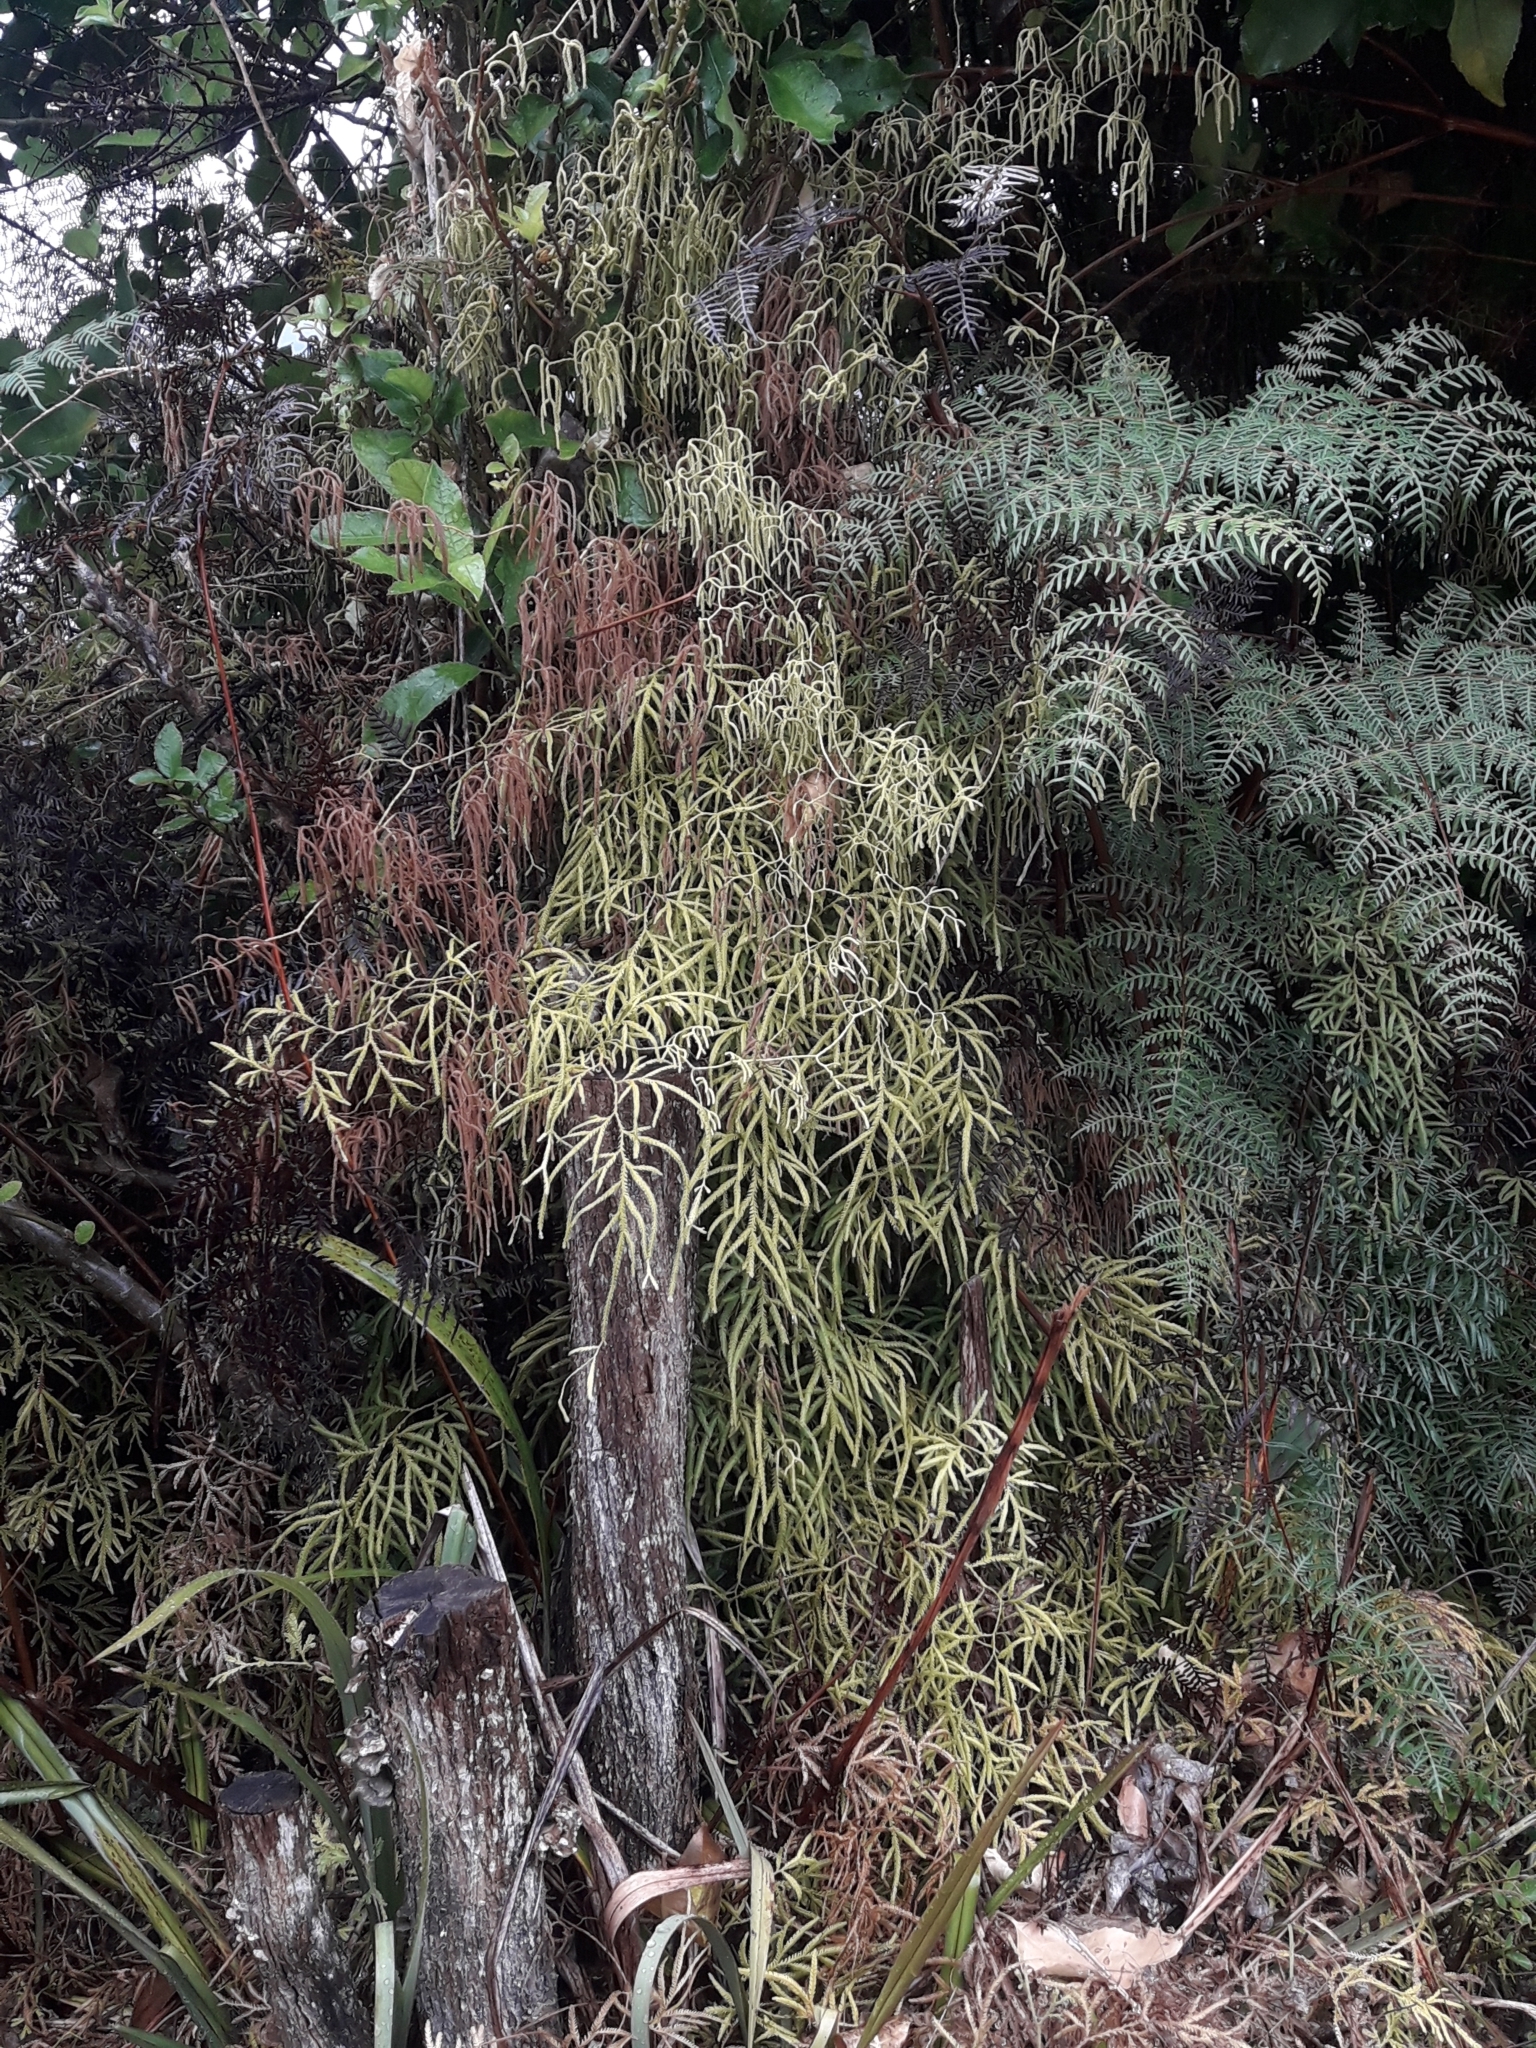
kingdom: Plantae
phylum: Tracheophyta
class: Lycopodiopsida
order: Lycopodiales
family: Lycopodiaceae
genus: Lycopodium
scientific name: Lycopodium volubile
